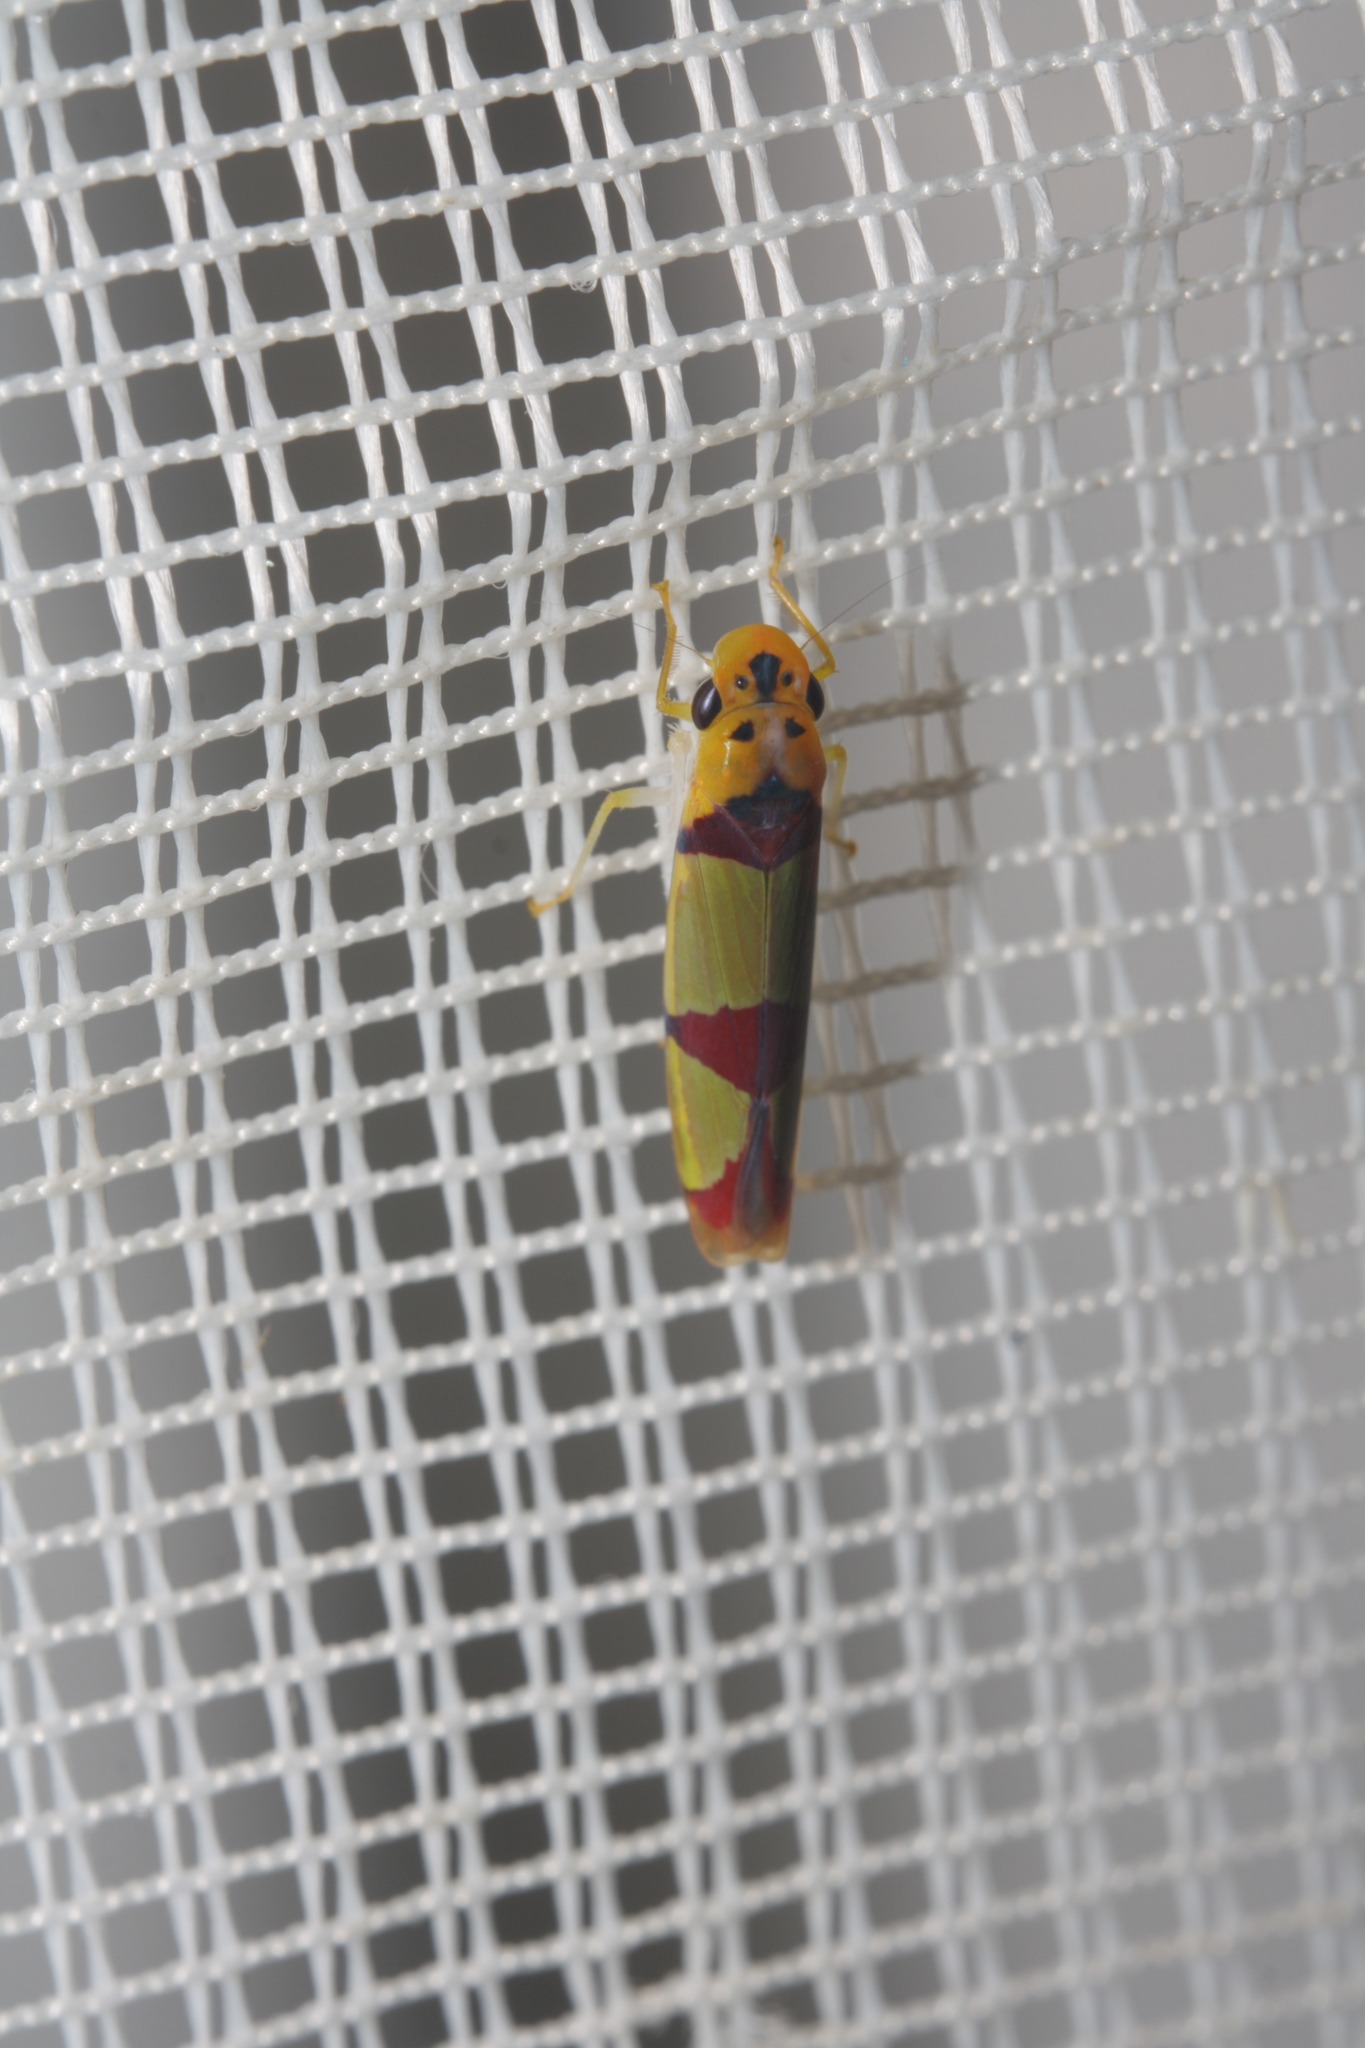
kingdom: Animalia
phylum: Arthropoda
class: Insecta
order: Hemiptera
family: Cicadellidae
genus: Baleja
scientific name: Baleja rufofasciata
